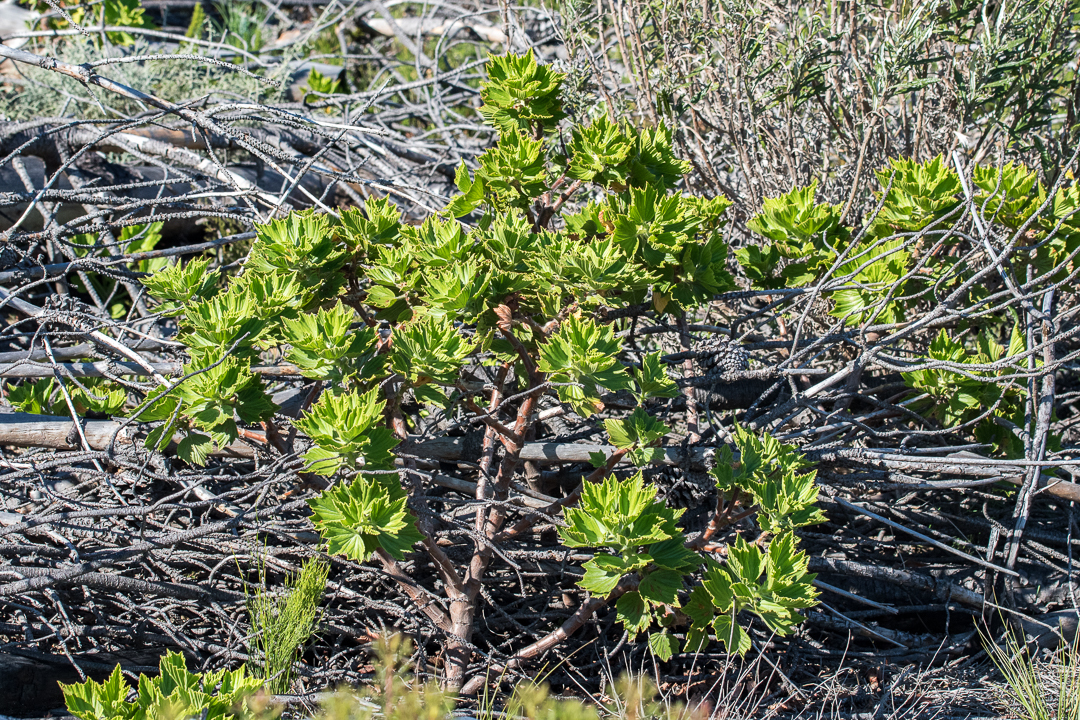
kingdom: Plantae
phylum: Tracheophyta
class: Magnoliopsida
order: Geraniales
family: Geraniaceae
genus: Pelargonium
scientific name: Pelargonium cucullatum
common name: Tree pelargonium
